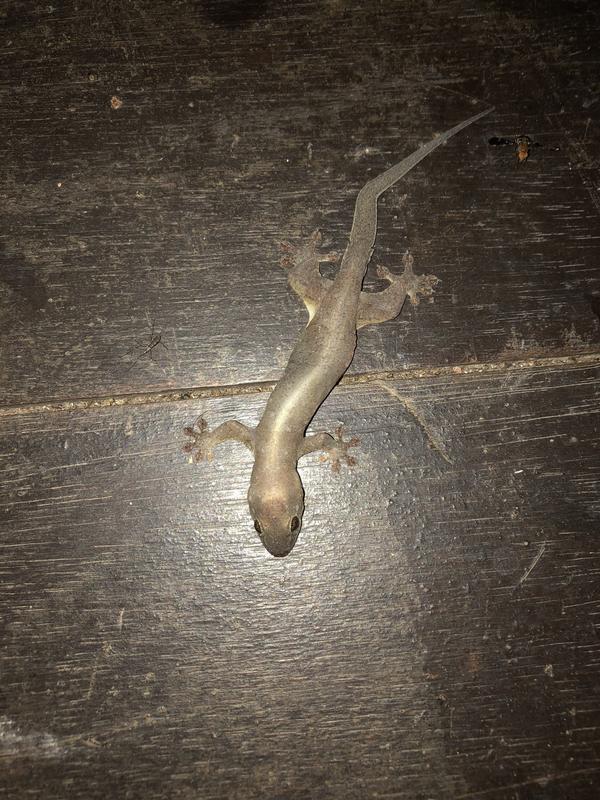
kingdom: Animalia
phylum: Chordata
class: Squamata
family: Gekkonidae
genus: Gehyra
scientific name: Gehyra mutilata
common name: Stump-toed gecko
